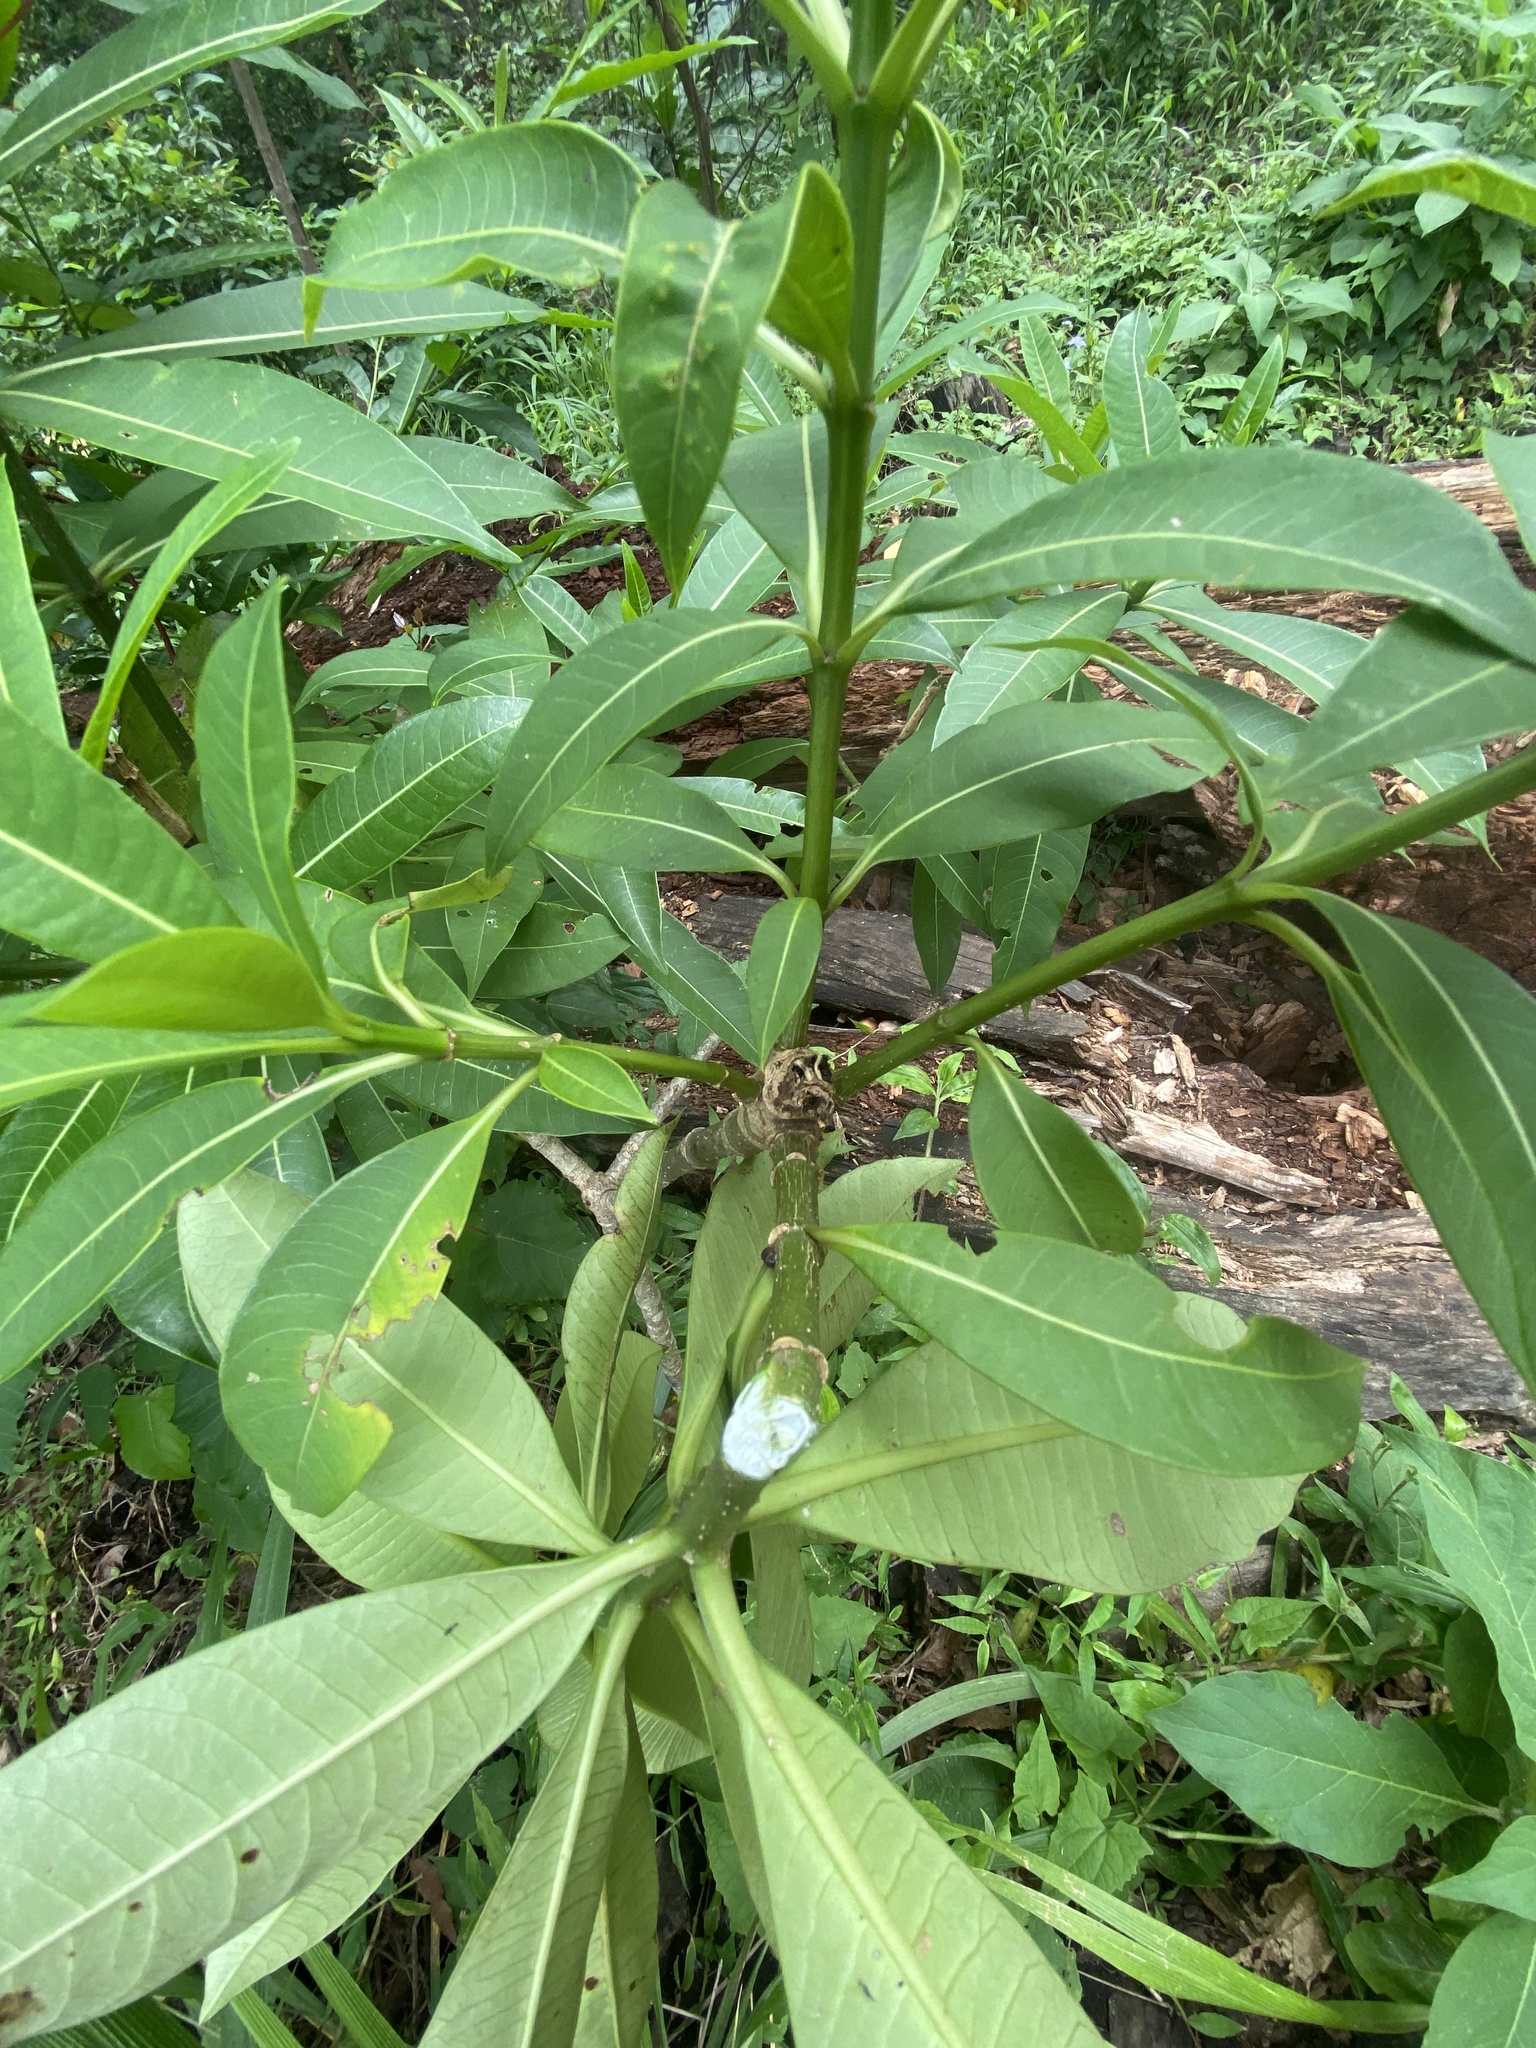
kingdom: Plantae
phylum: Tracheophyta
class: Magnoliopsida
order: Gentianales
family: Apocynaceae
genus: Rauvolfia
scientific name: Rauvolfia caffra
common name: Quininetree
